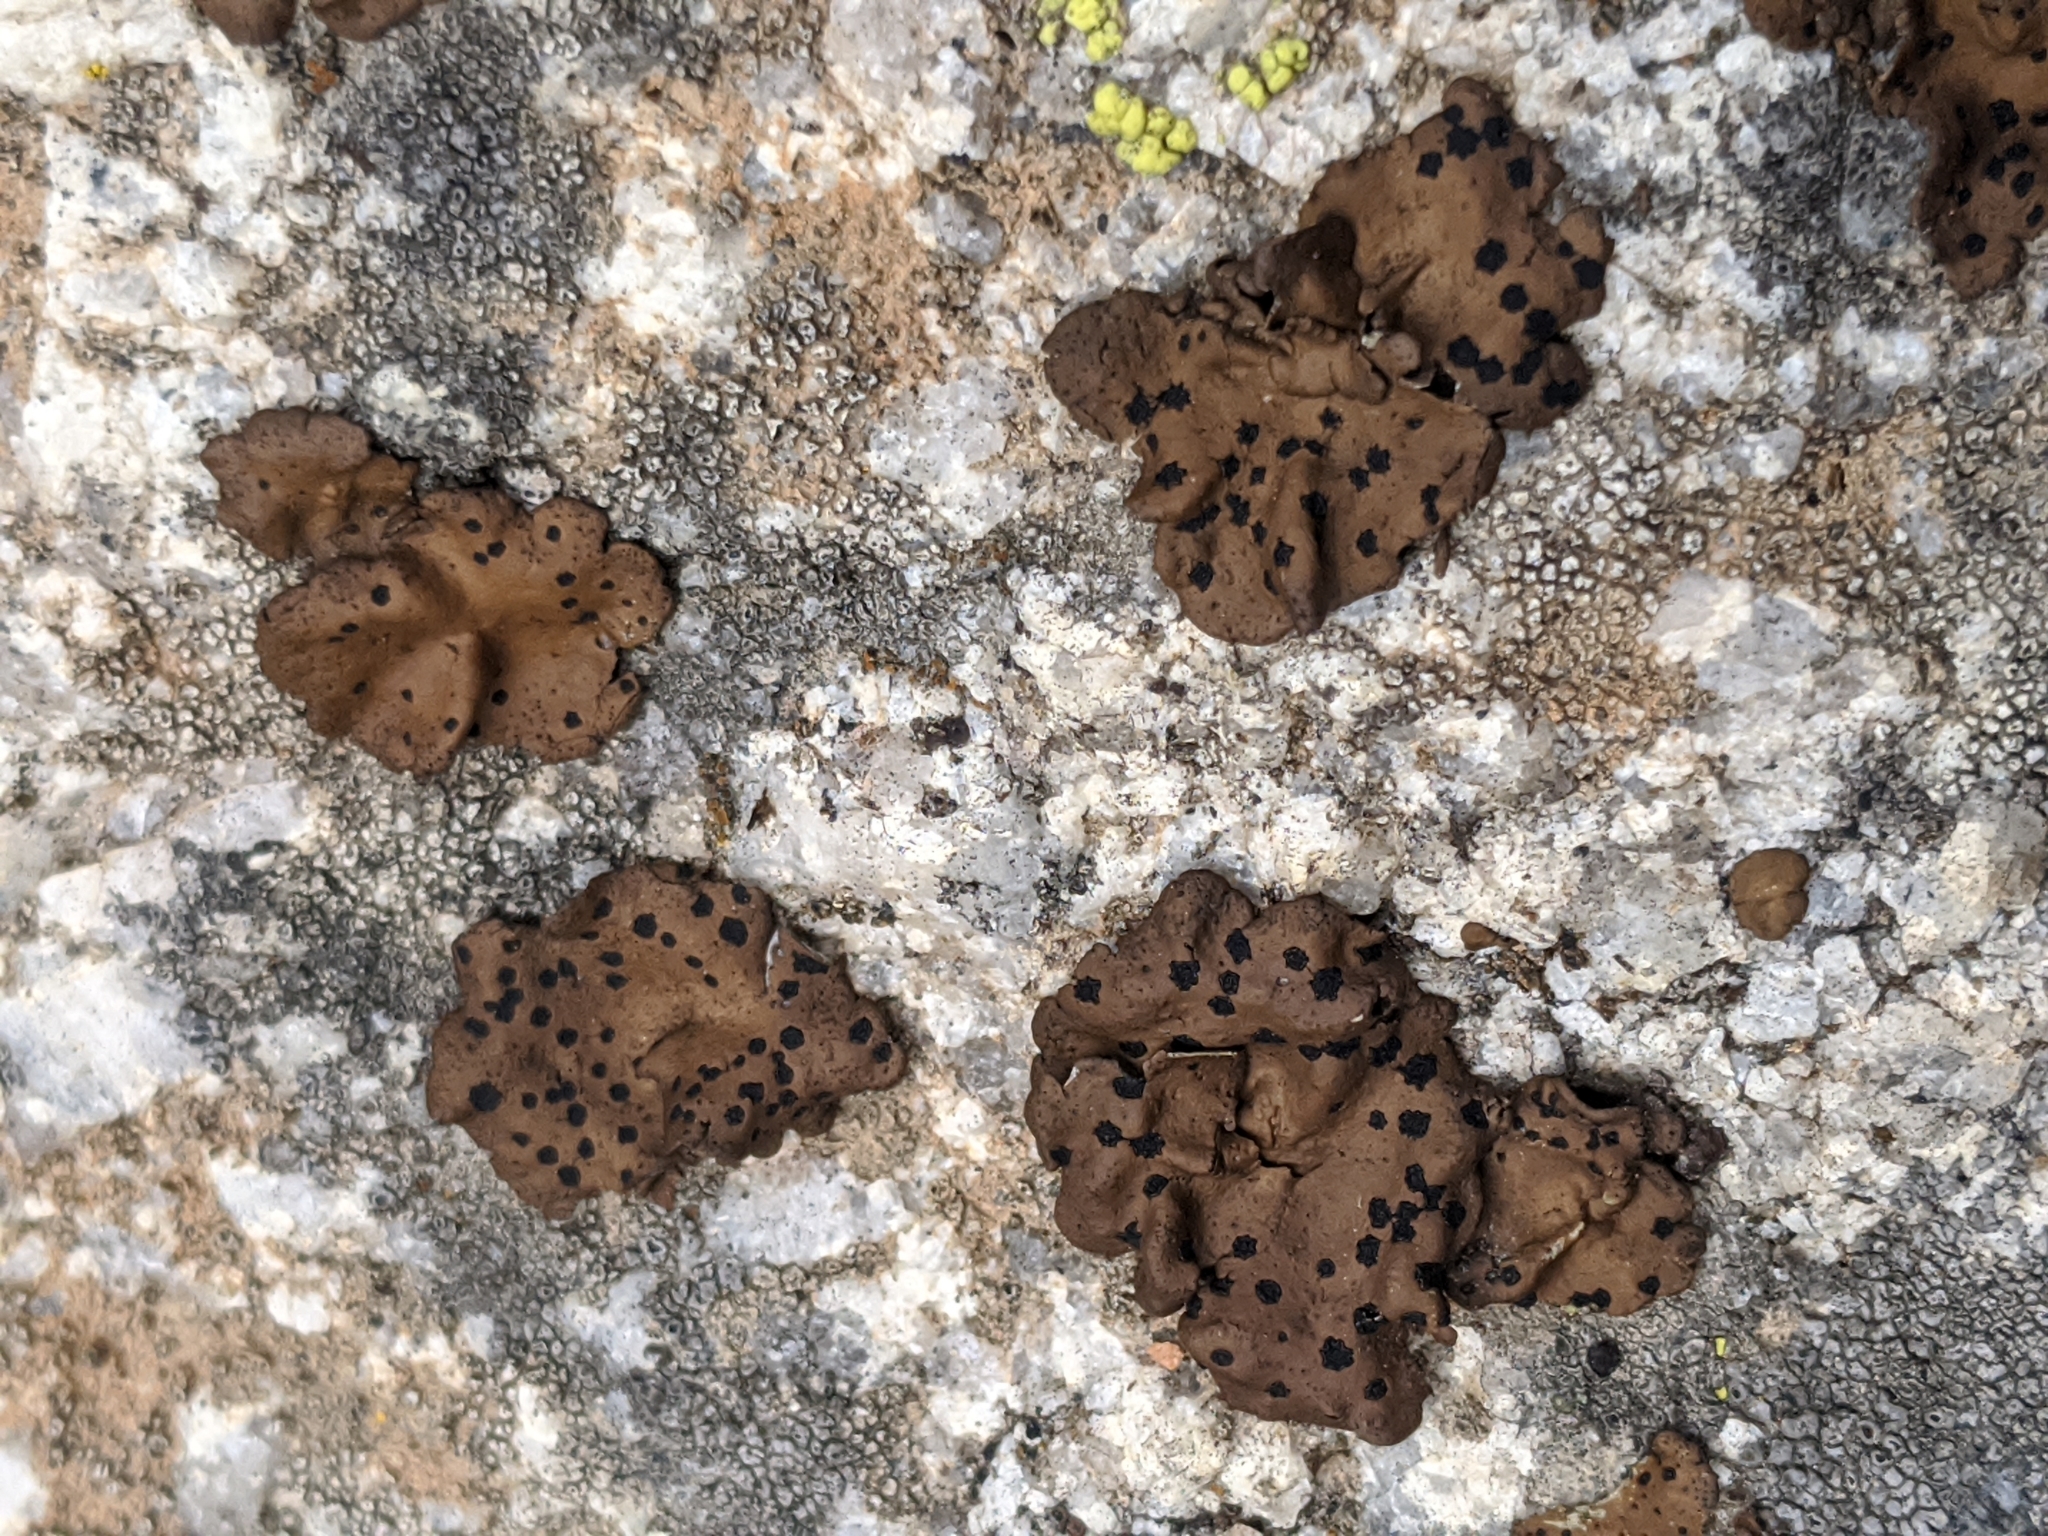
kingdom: Fungi
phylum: Ascomycota
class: Lecanoromycetes
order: Umbilicariales
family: Umbilicariaceae
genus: Umbilicaria
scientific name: Umbilicaria phaea
